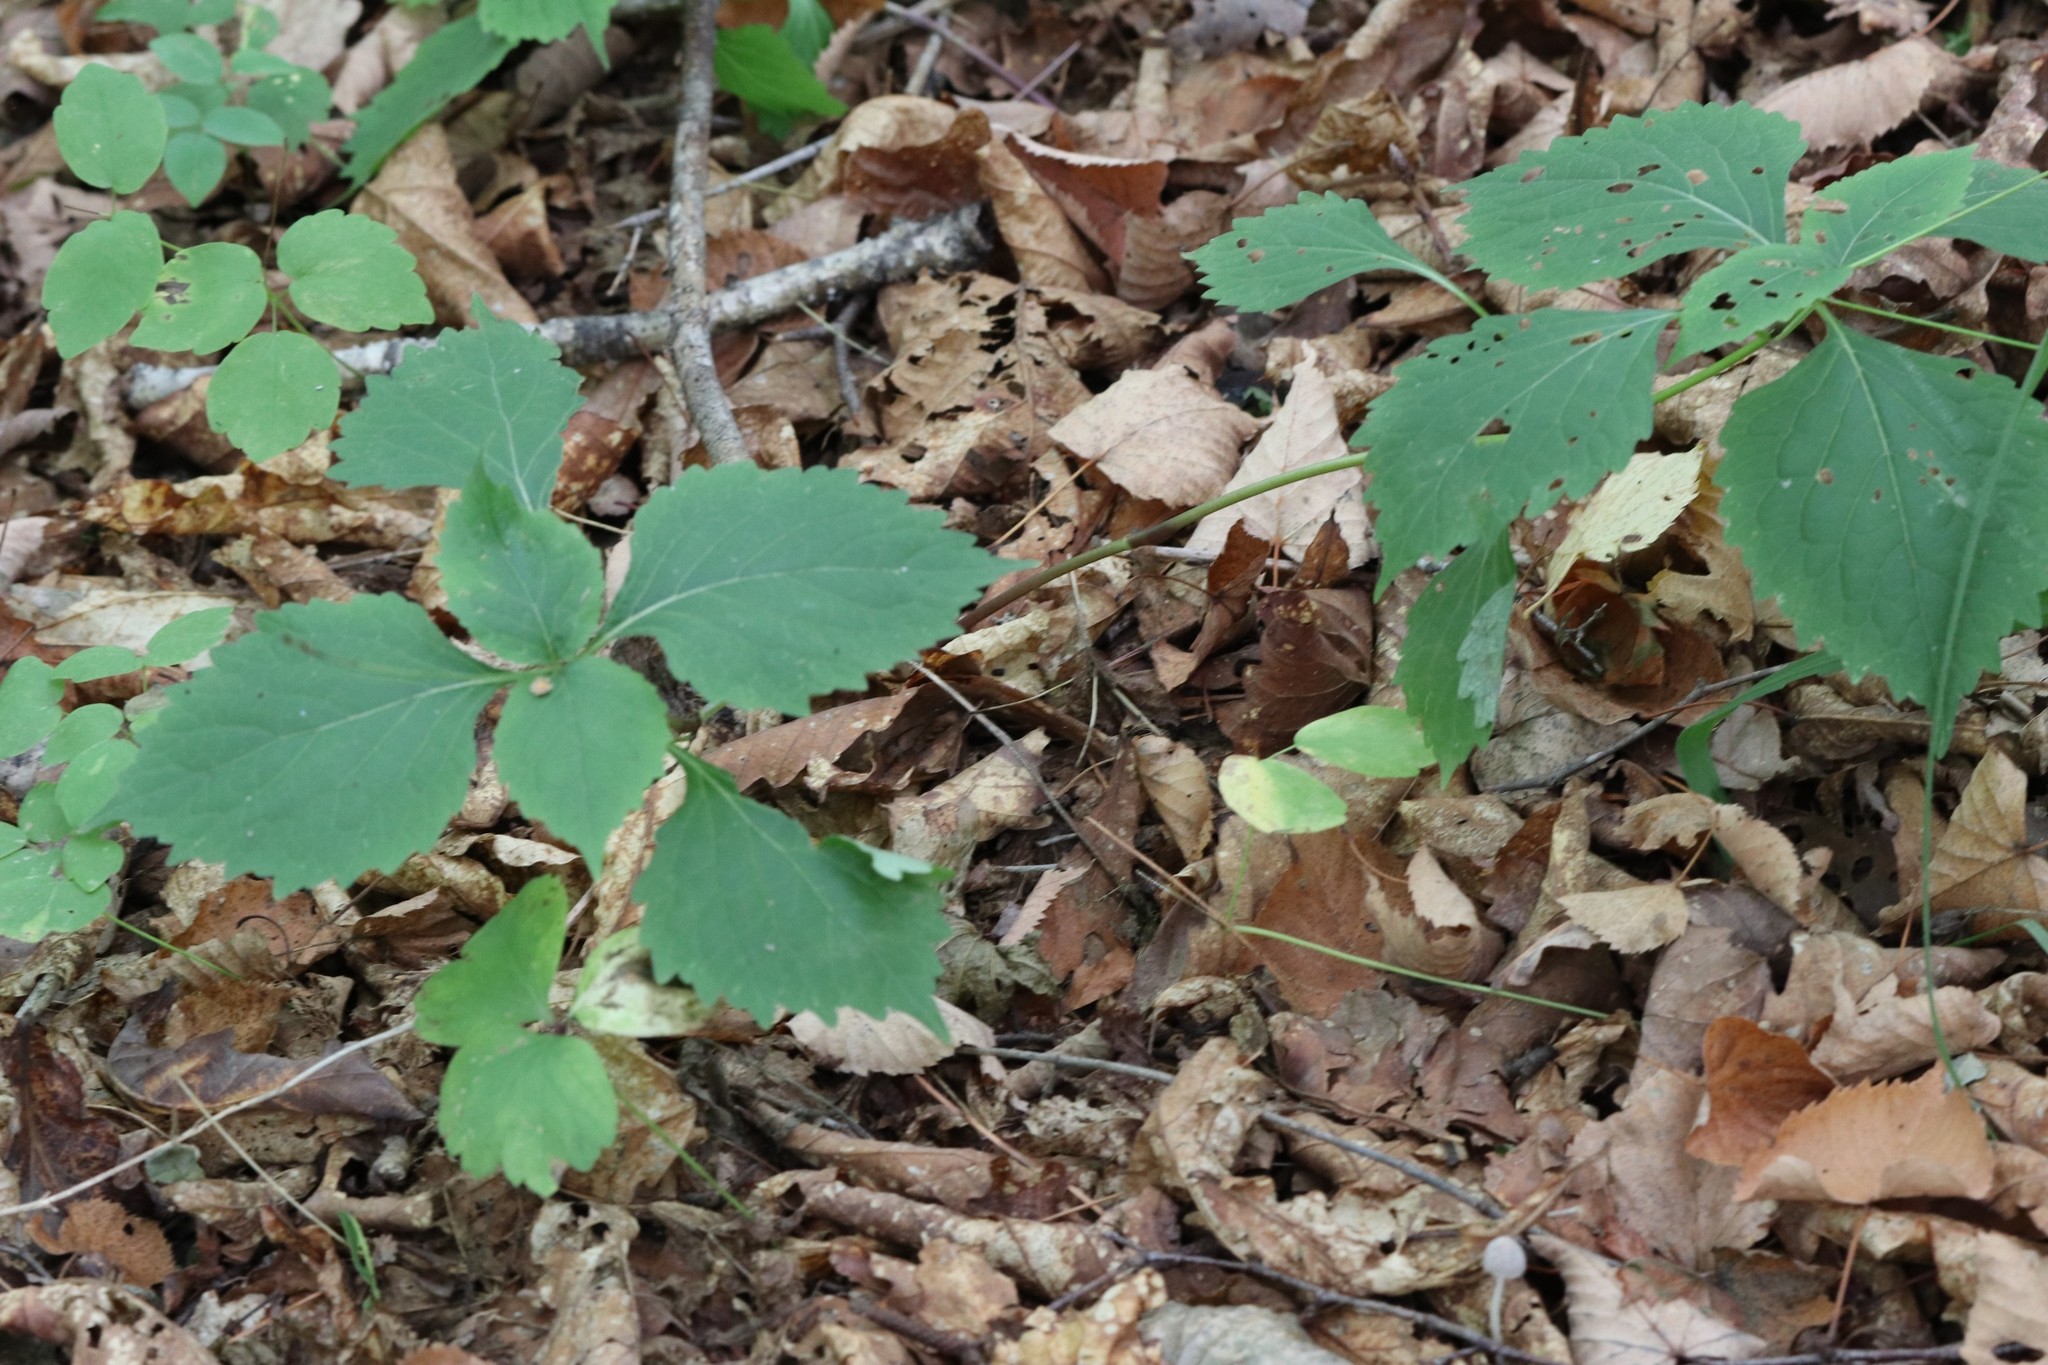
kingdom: Plantae
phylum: Tracheophyta
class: Magnoliopsida
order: Lamiales
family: Phrymaceae
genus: Phryma
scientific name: Phryma nana
